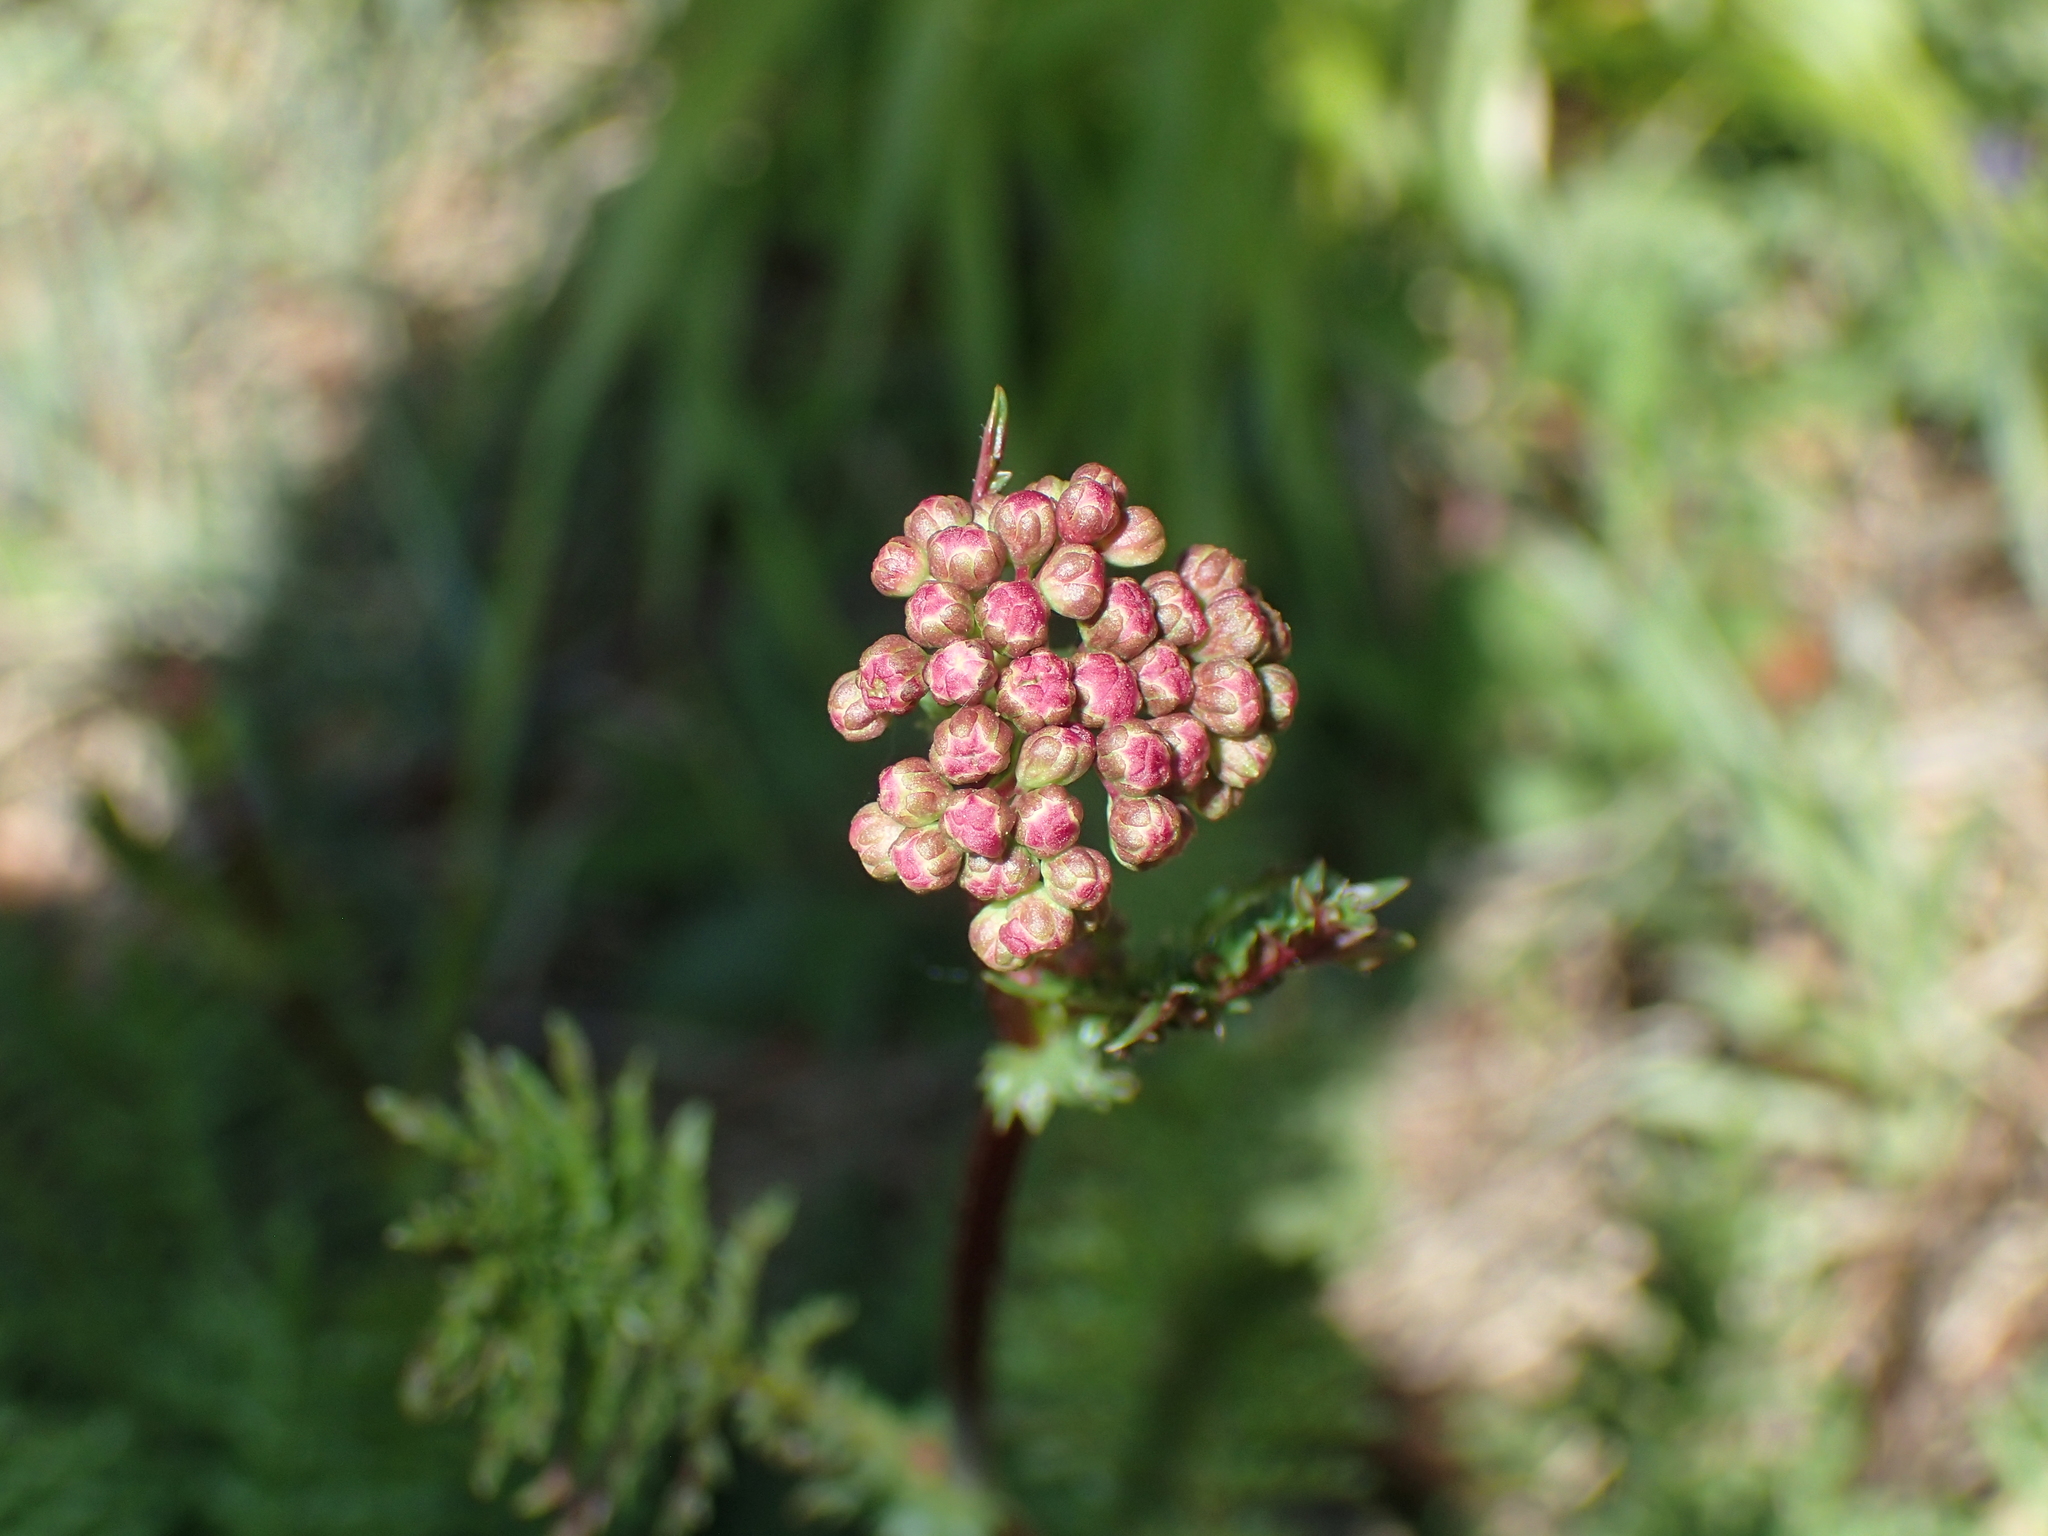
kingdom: Plantae
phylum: Tracheophyta
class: Magnoliopsida
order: Rosales
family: Rosaceae
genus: Filipendula
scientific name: Filipendula vulgaris
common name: Dropwort
